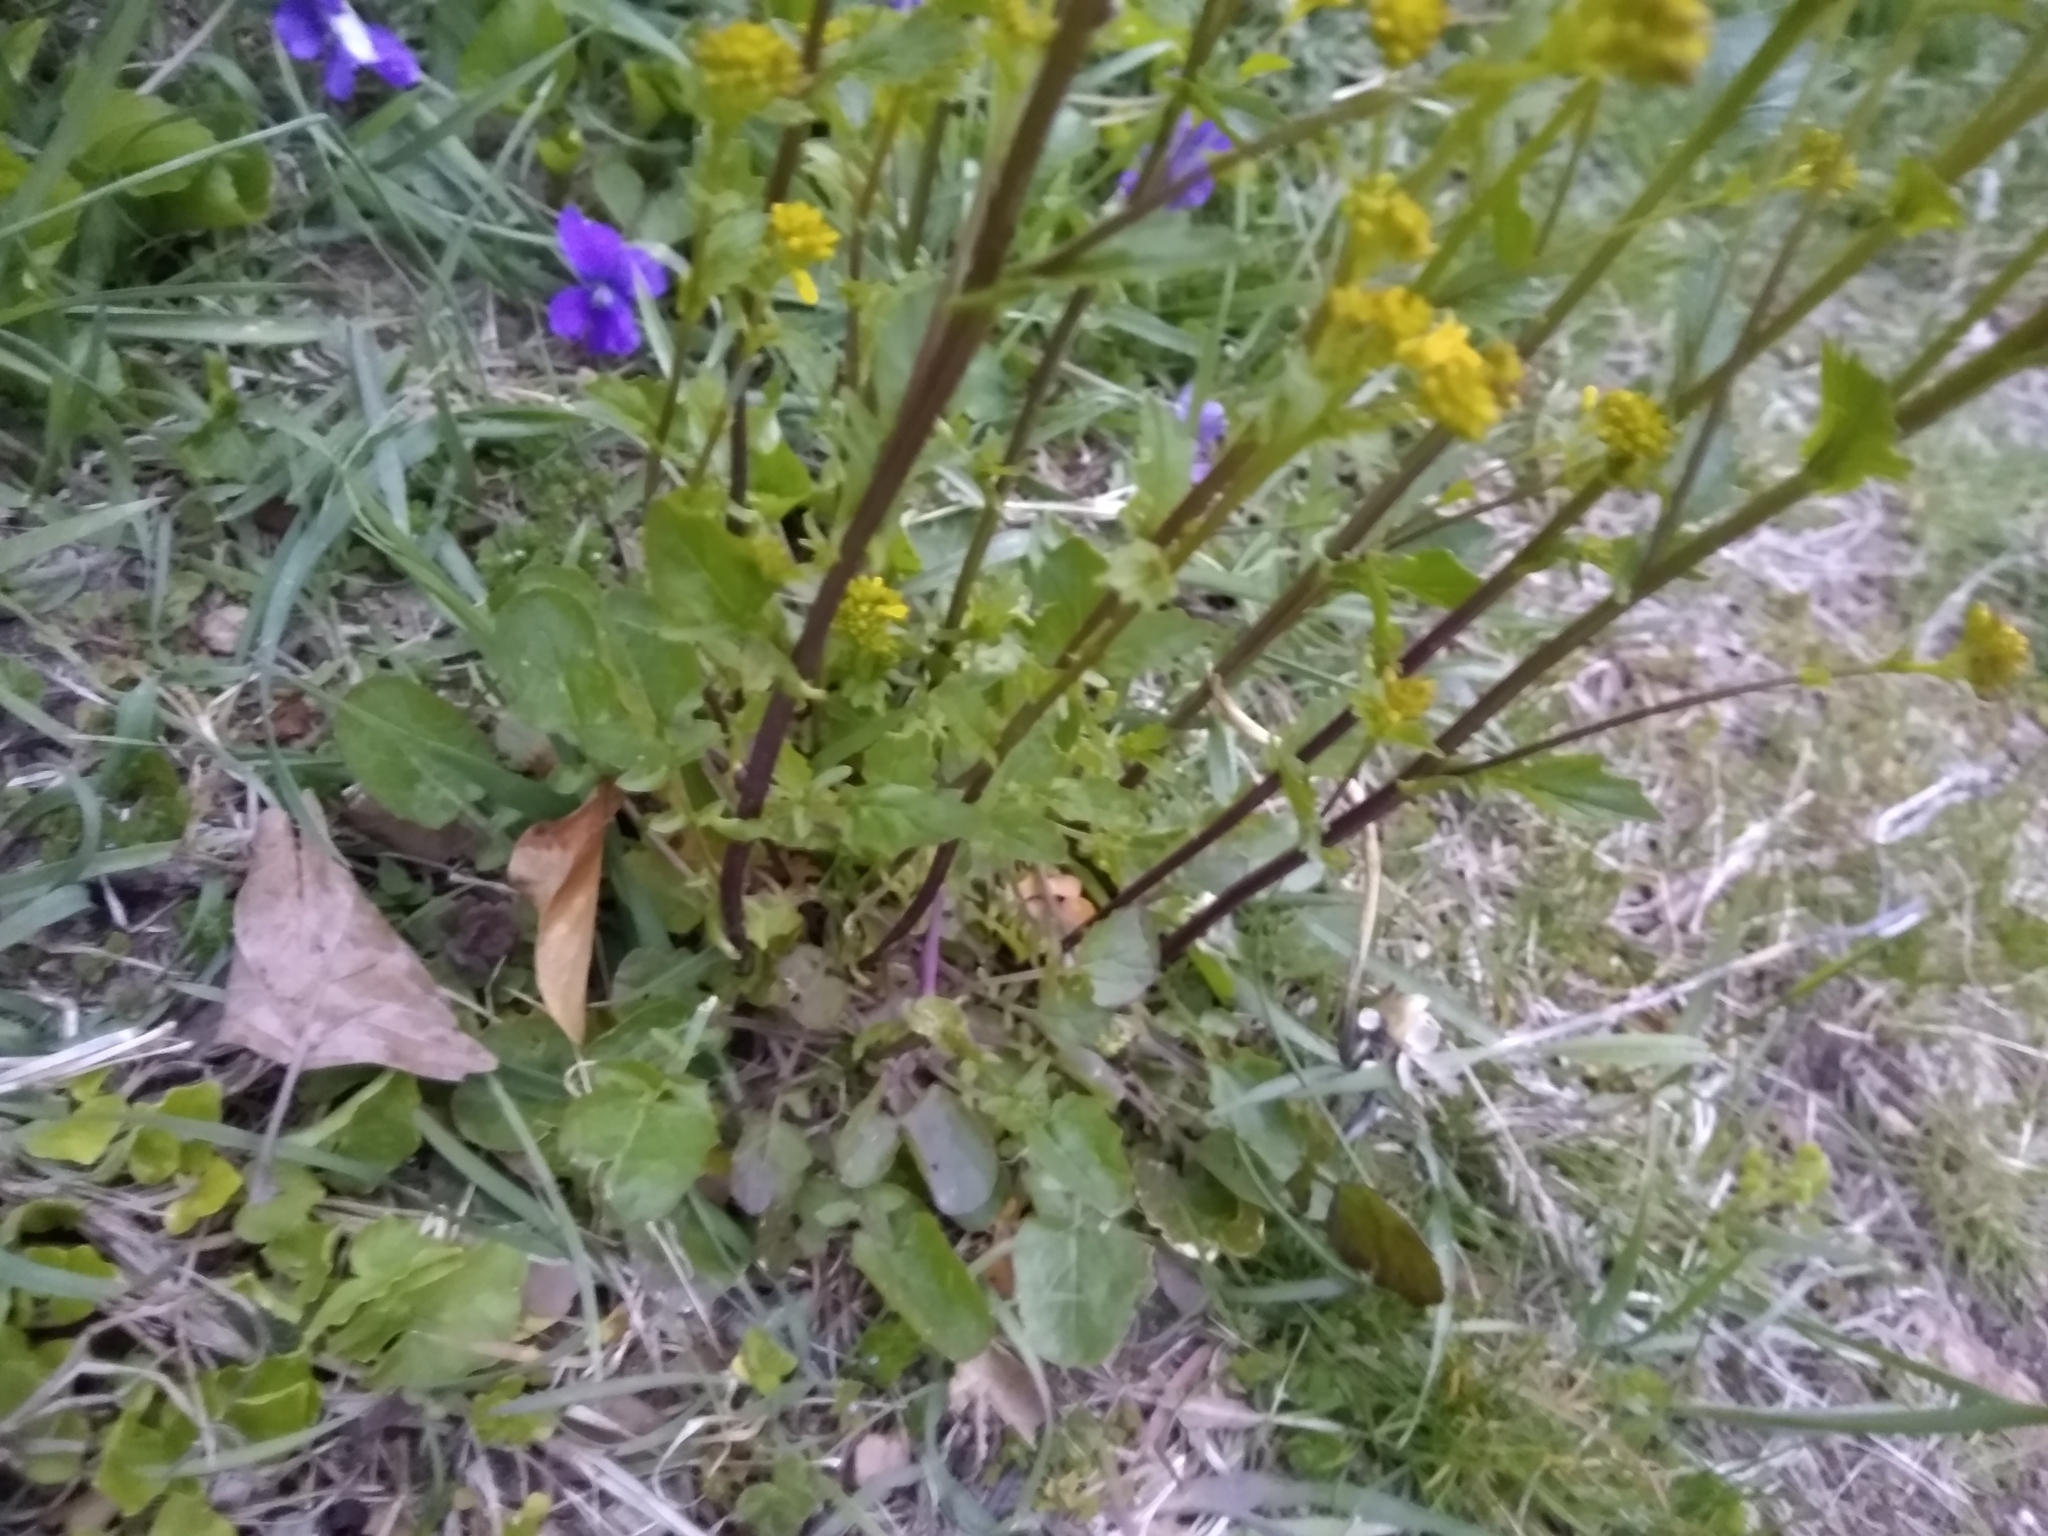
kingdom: Plantae
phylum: Tracheophyta
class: Magnoliopsida
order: Brassicales
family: Brassicaceae
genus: Barbarea
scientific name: Barbarea vulgaris
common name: Cressy-greens
